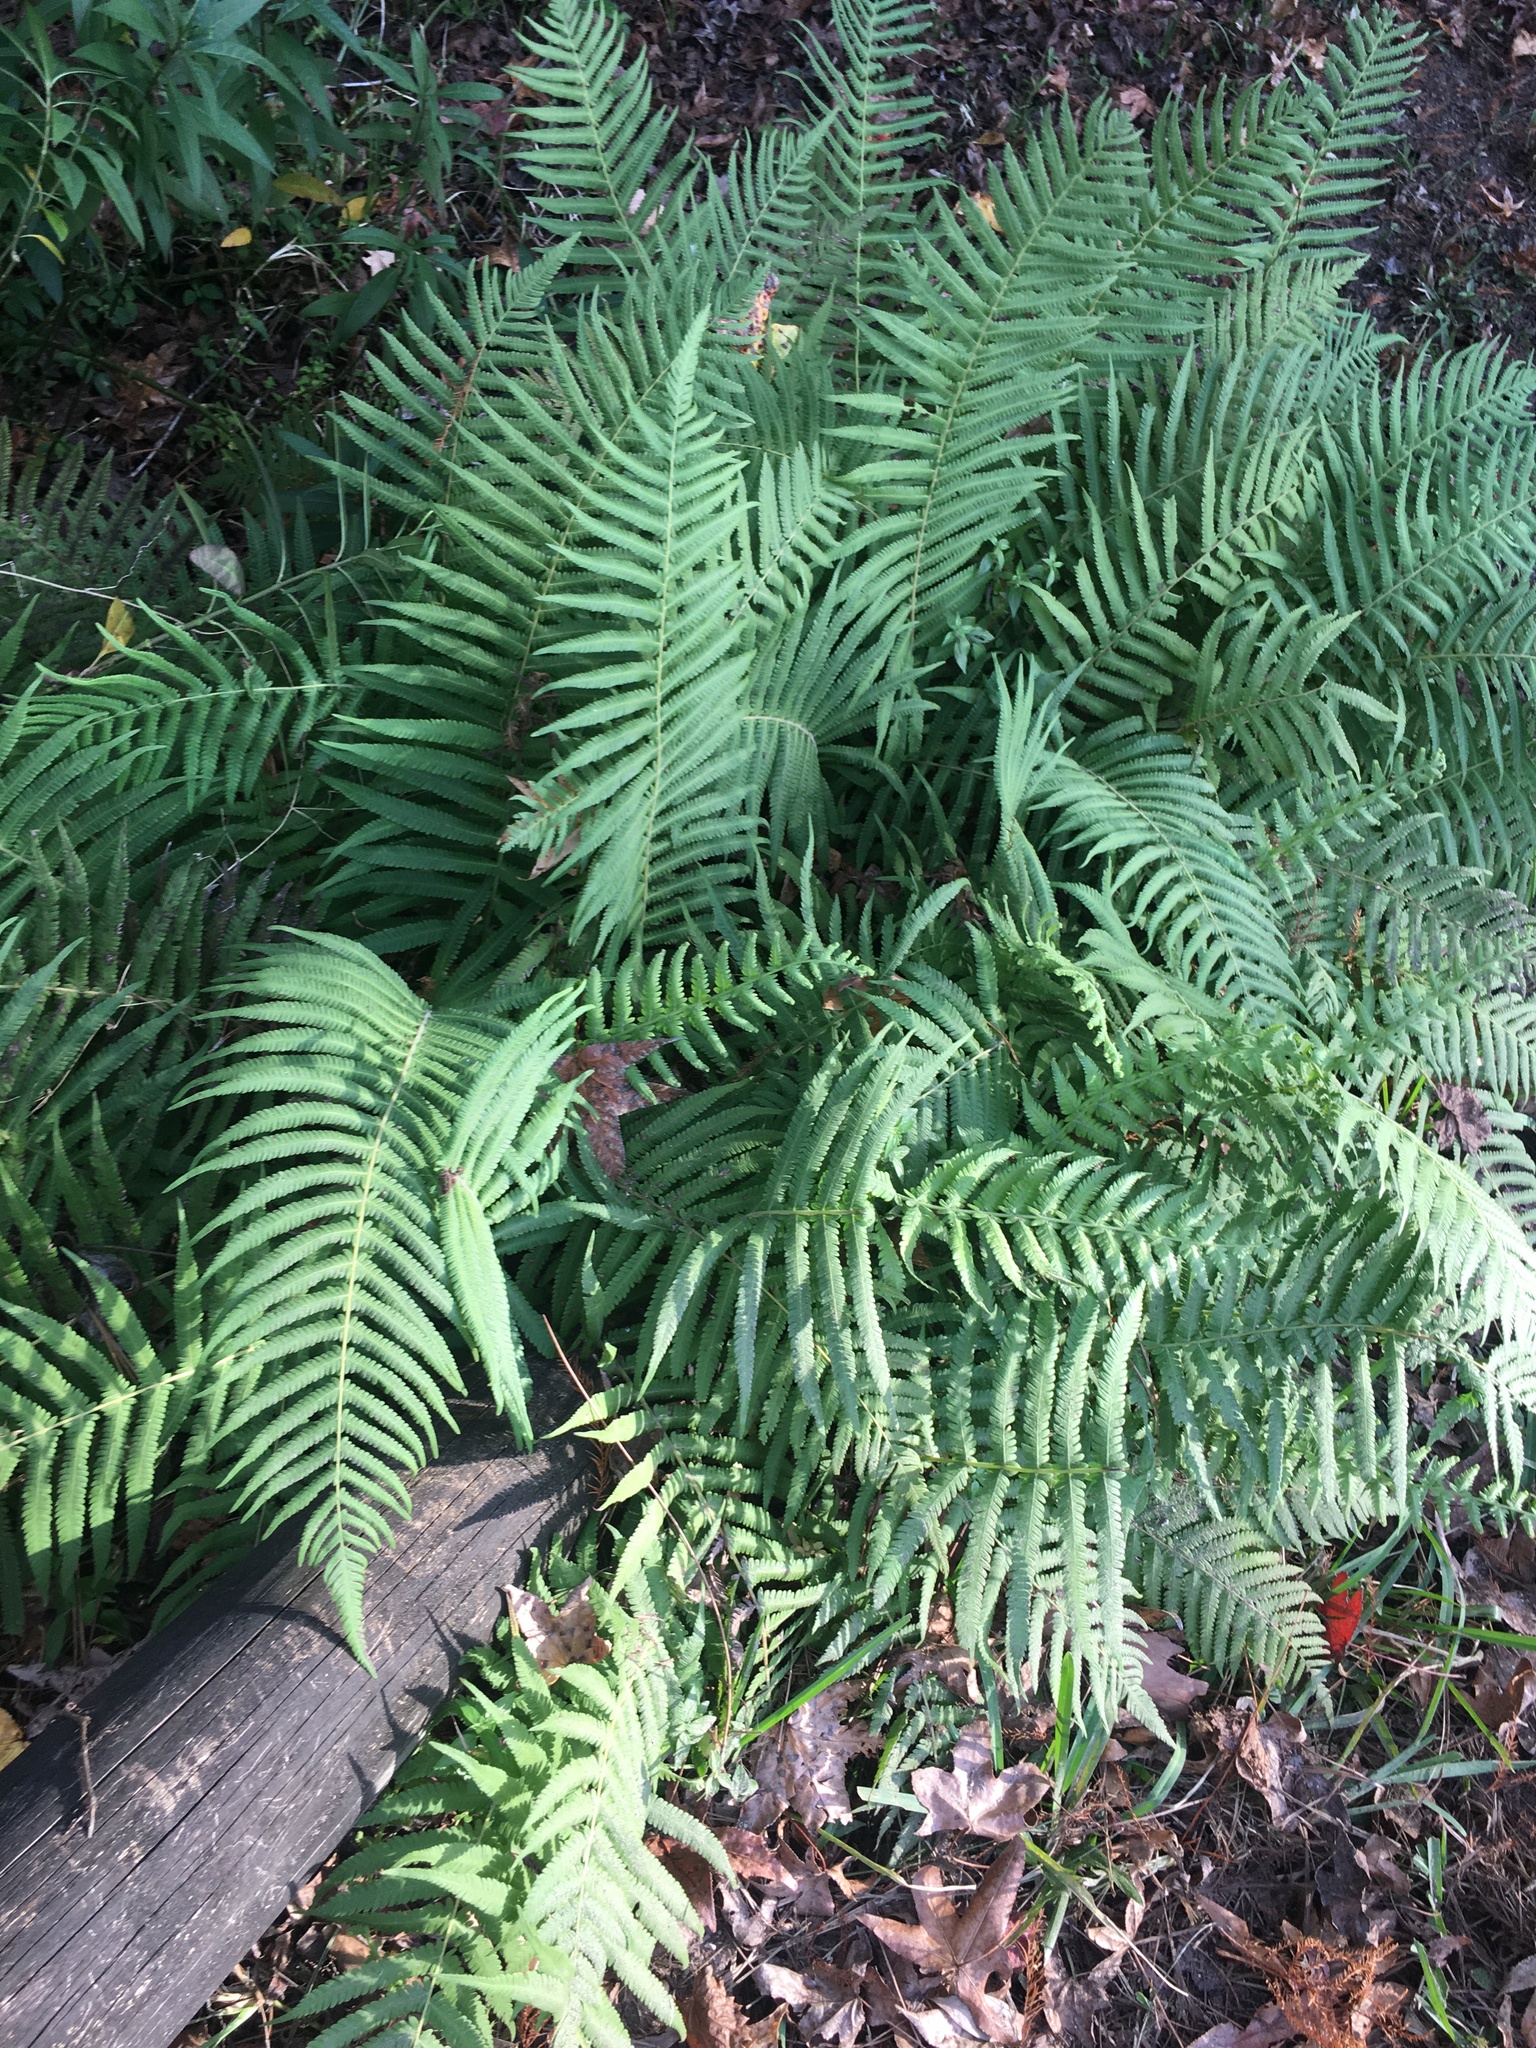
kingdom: Plantae
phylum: Tracheophyta
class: Polypodiopsida
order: Polypodiales
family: Thelypteridaceae
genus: Pelazoneuron
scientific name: Pelazoneuron kunthii
